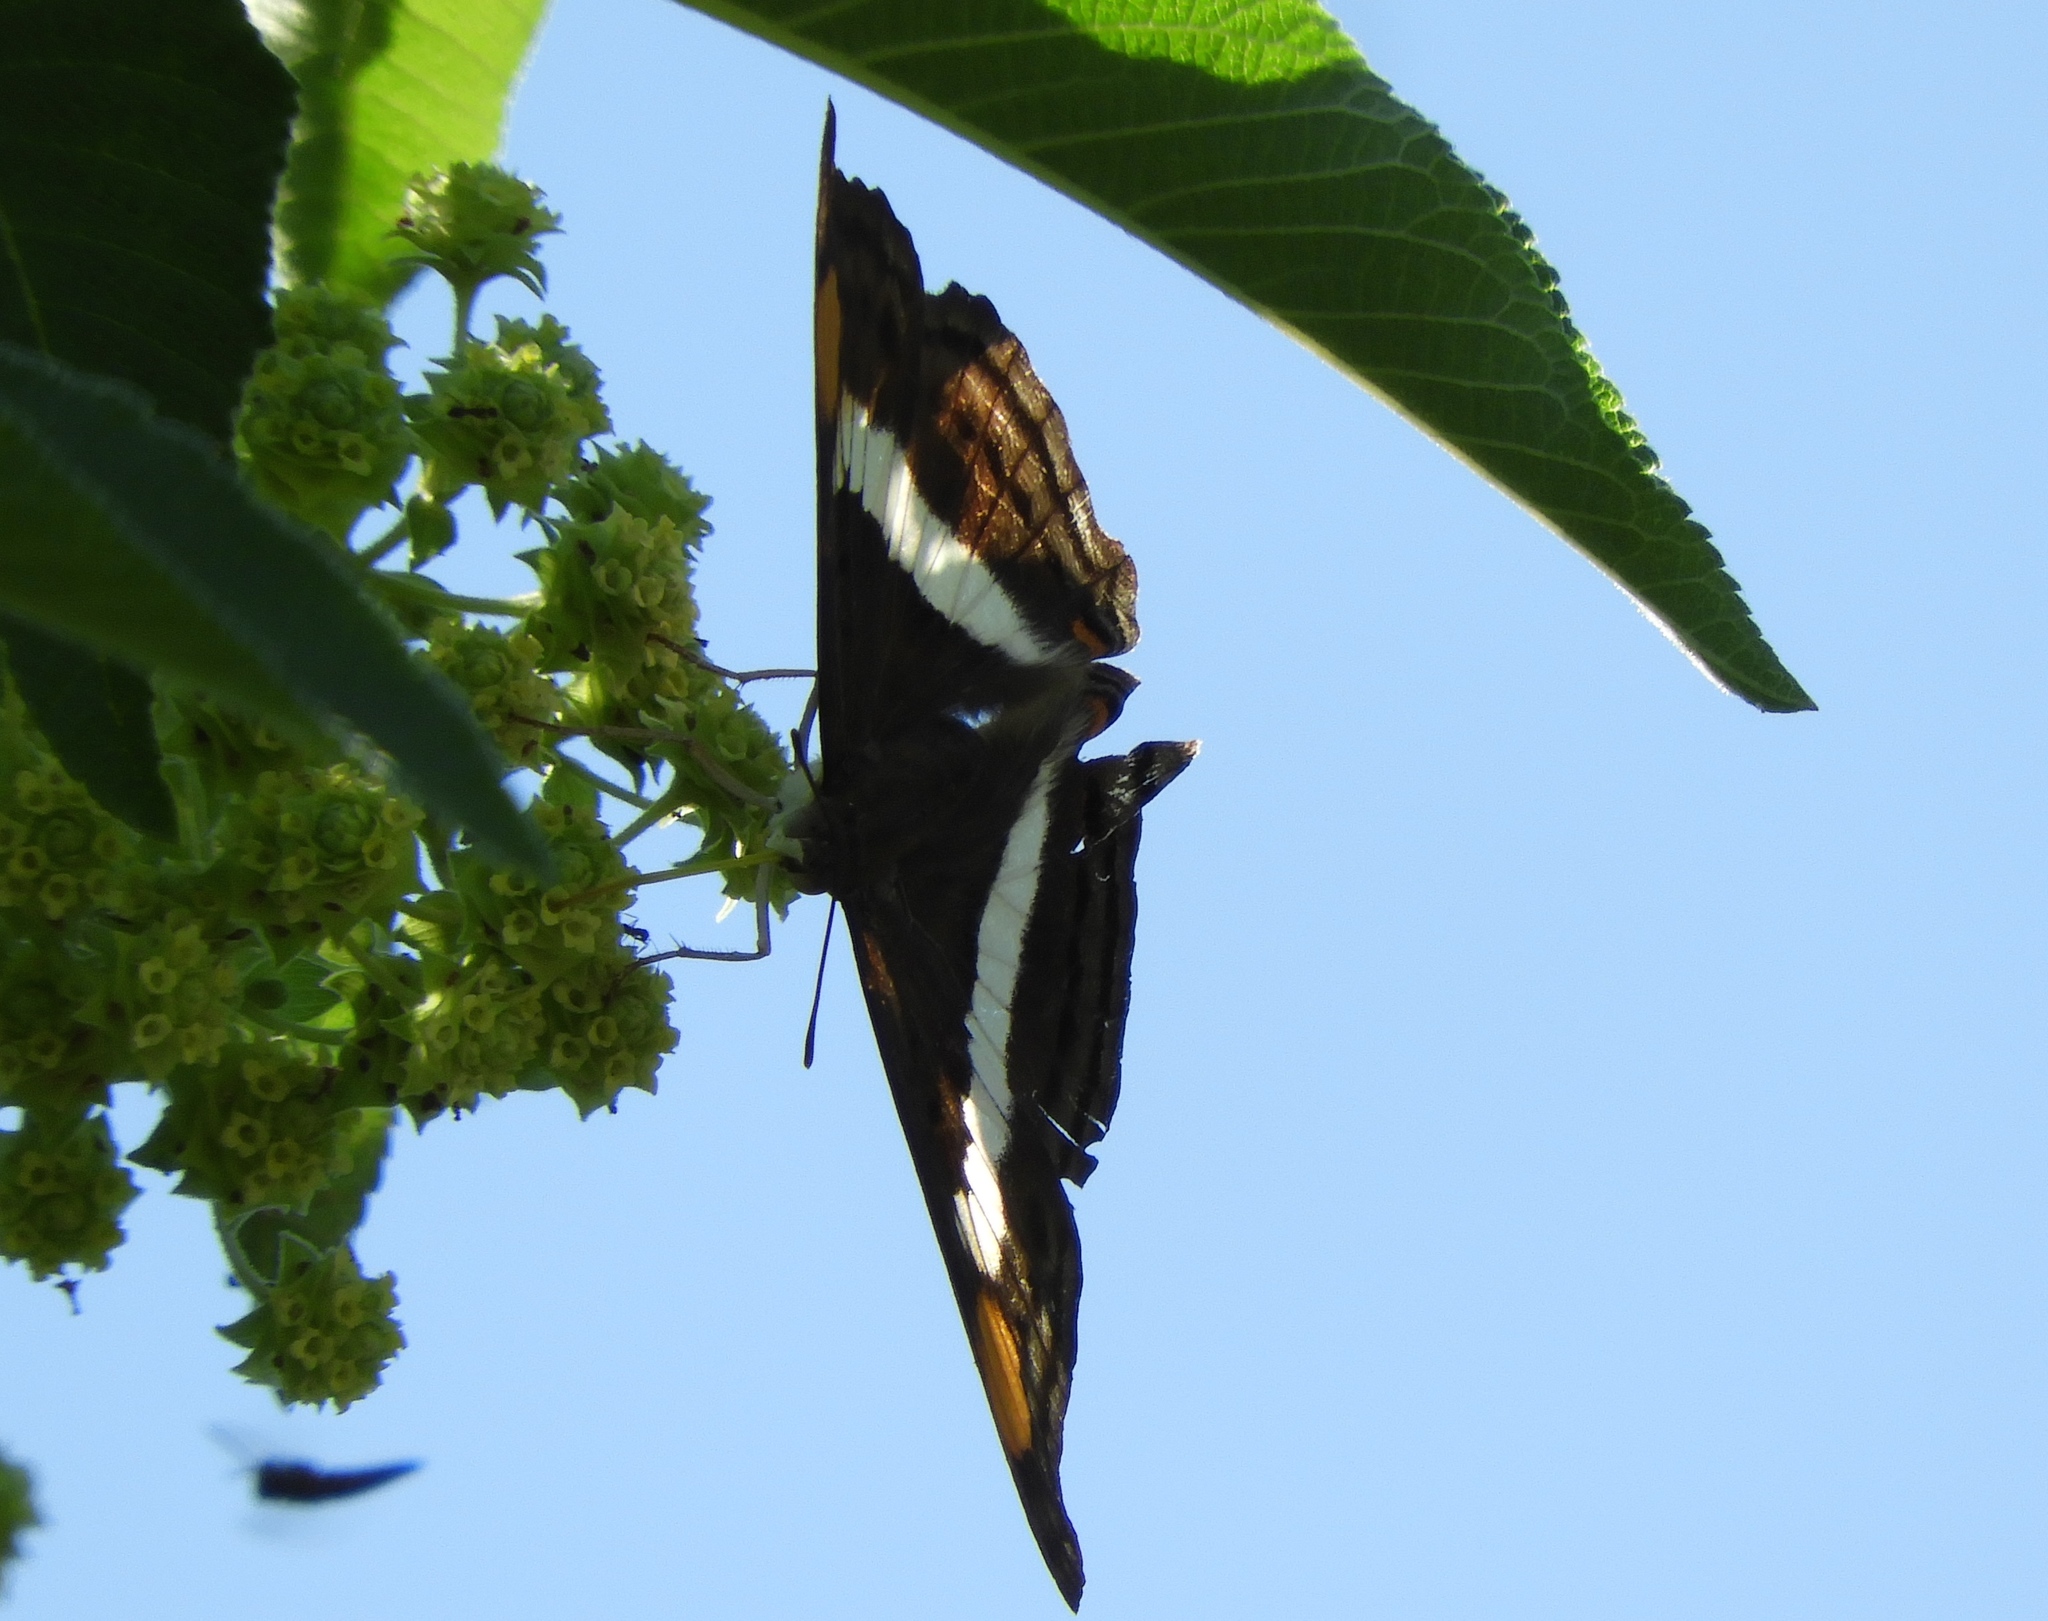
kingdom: Animalia
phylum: Arthropoda
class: Insecta
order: Lepidoptera
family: Nymphalidae
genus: Doxocopa
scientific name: Doxocopa laure
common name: Silver emperor
